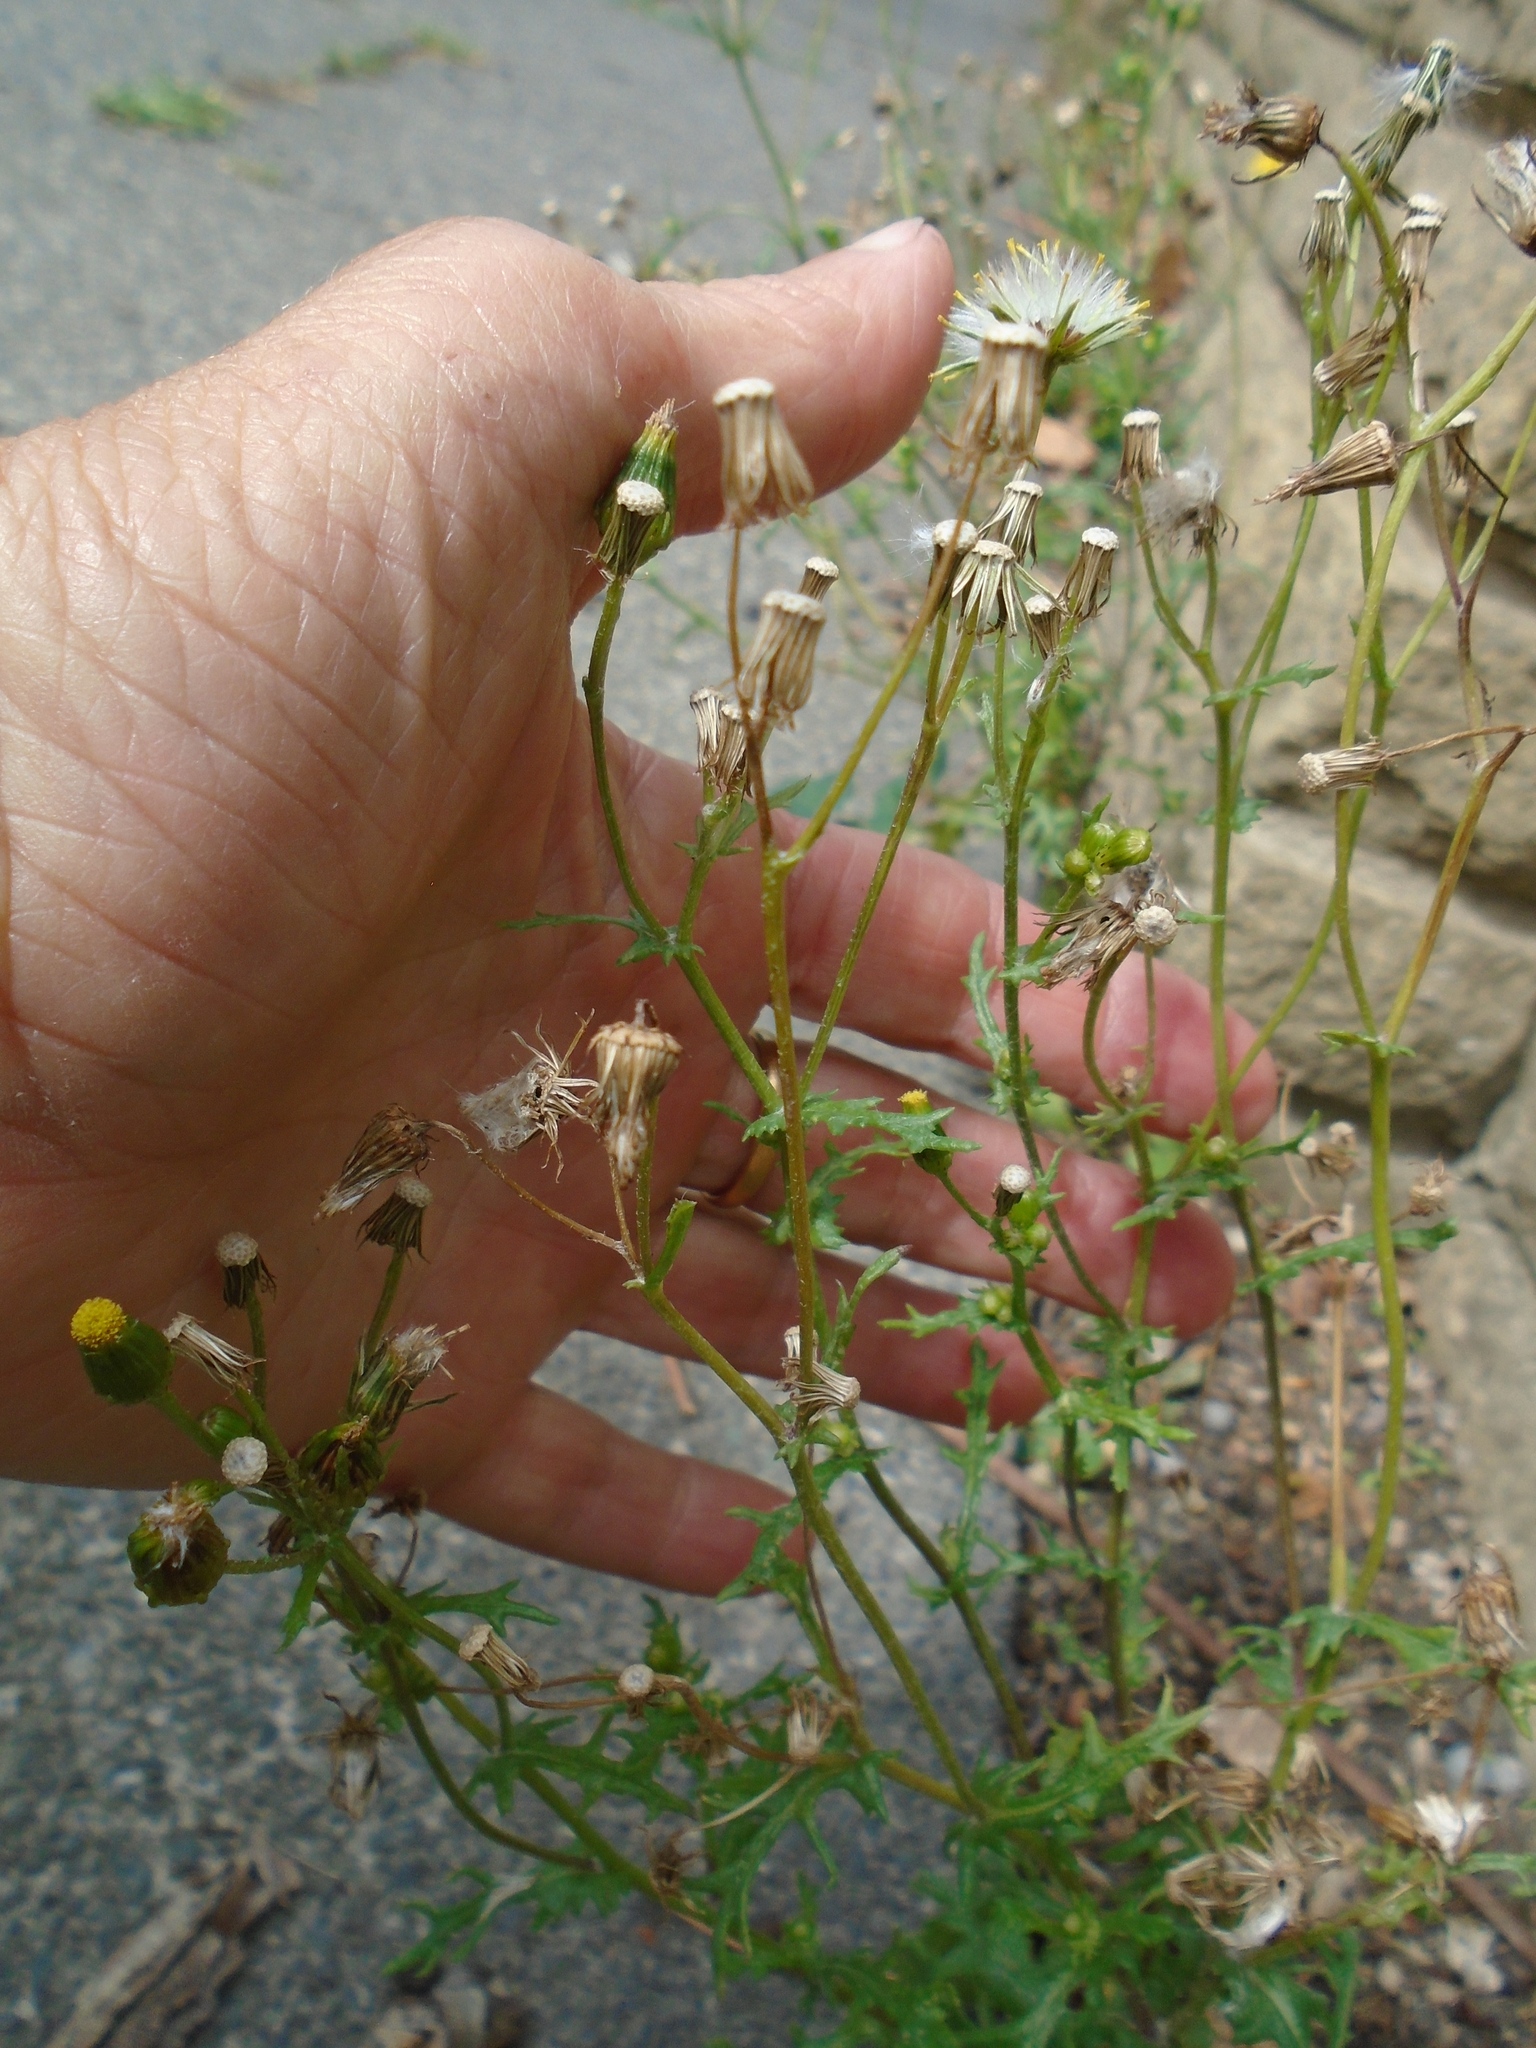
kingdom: Plantae
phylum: Tracheophyta
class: Magnoliopsida
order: Asterales
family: Asteraceae
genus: Senecio
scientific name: Senecio vulgaris
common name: Old-man-in-the-spring
